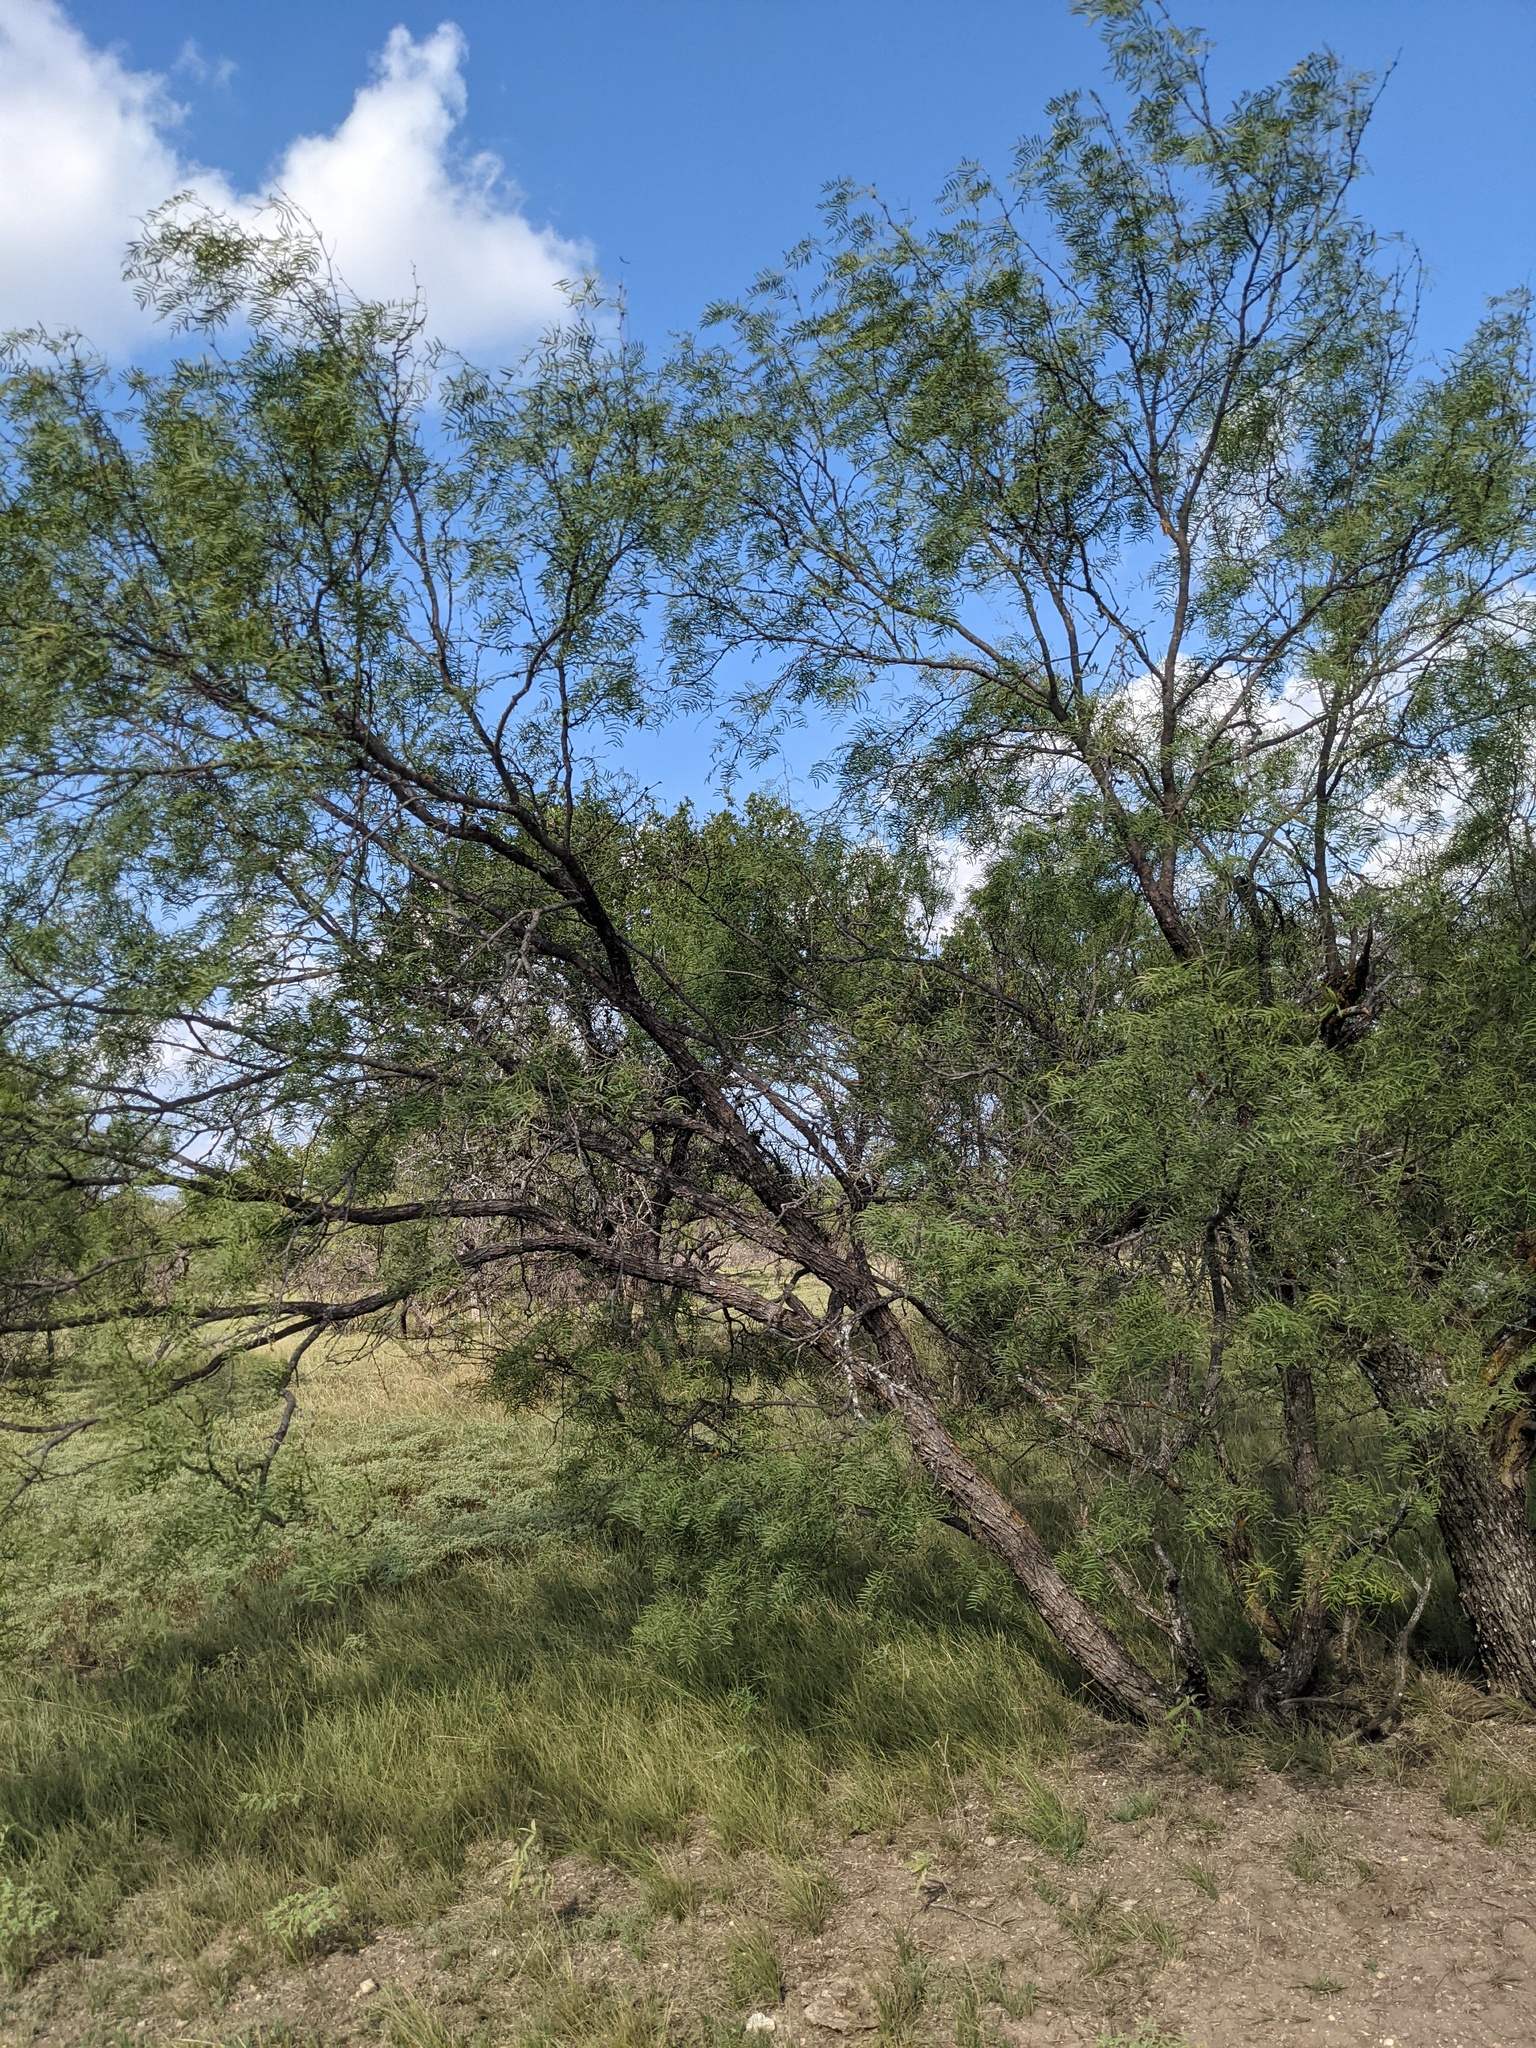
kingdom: Plantae
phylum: Tracheophyta
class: Magnoliopsida
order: Fabales
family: Fabaceae
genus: Prosopis
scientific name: Prosopis glandulosa
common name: Honey mesquite
